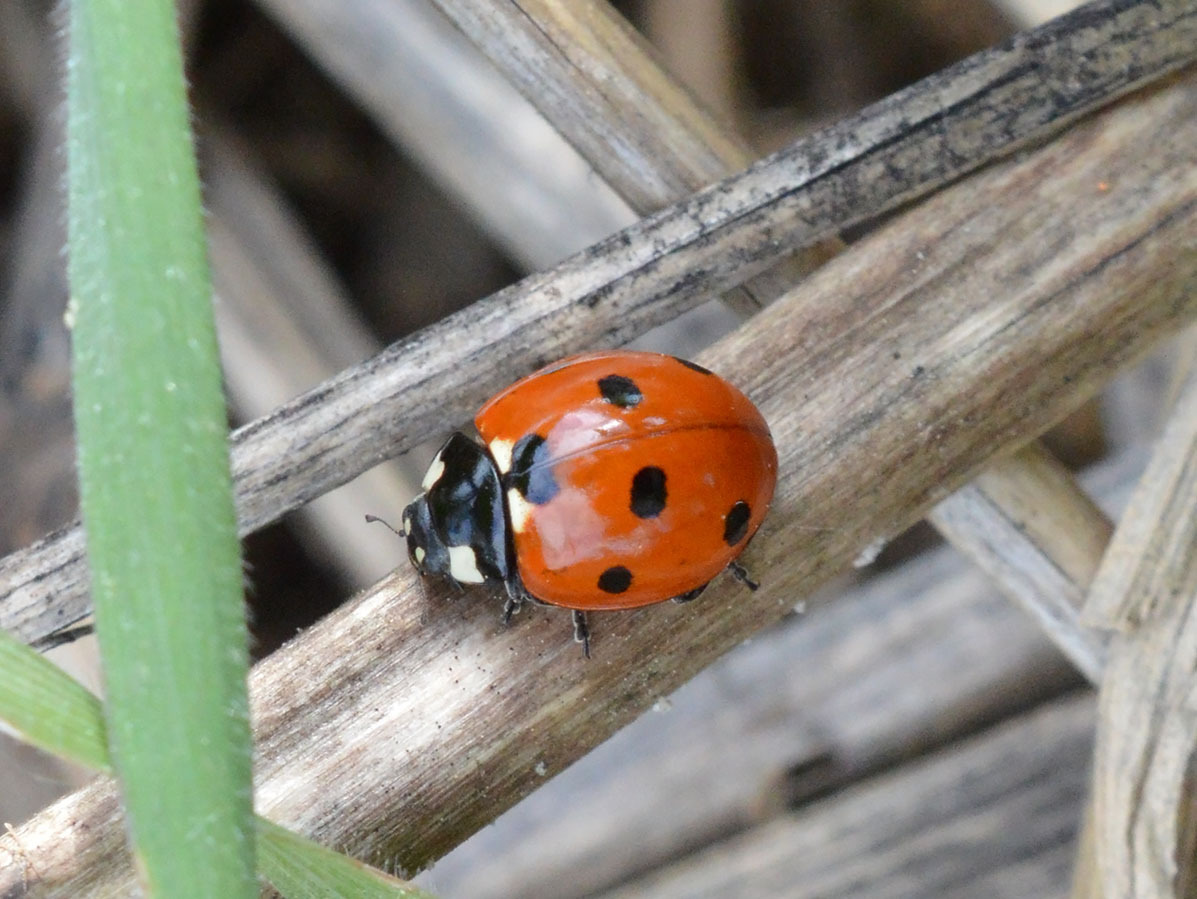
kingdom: Animalia
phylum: Arthropoda
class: Insecta
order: Coleoptera
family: Coccinellidae
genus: Coccinella
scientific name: Coccinella septempunctata
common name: Sevenspotted lady beetle
